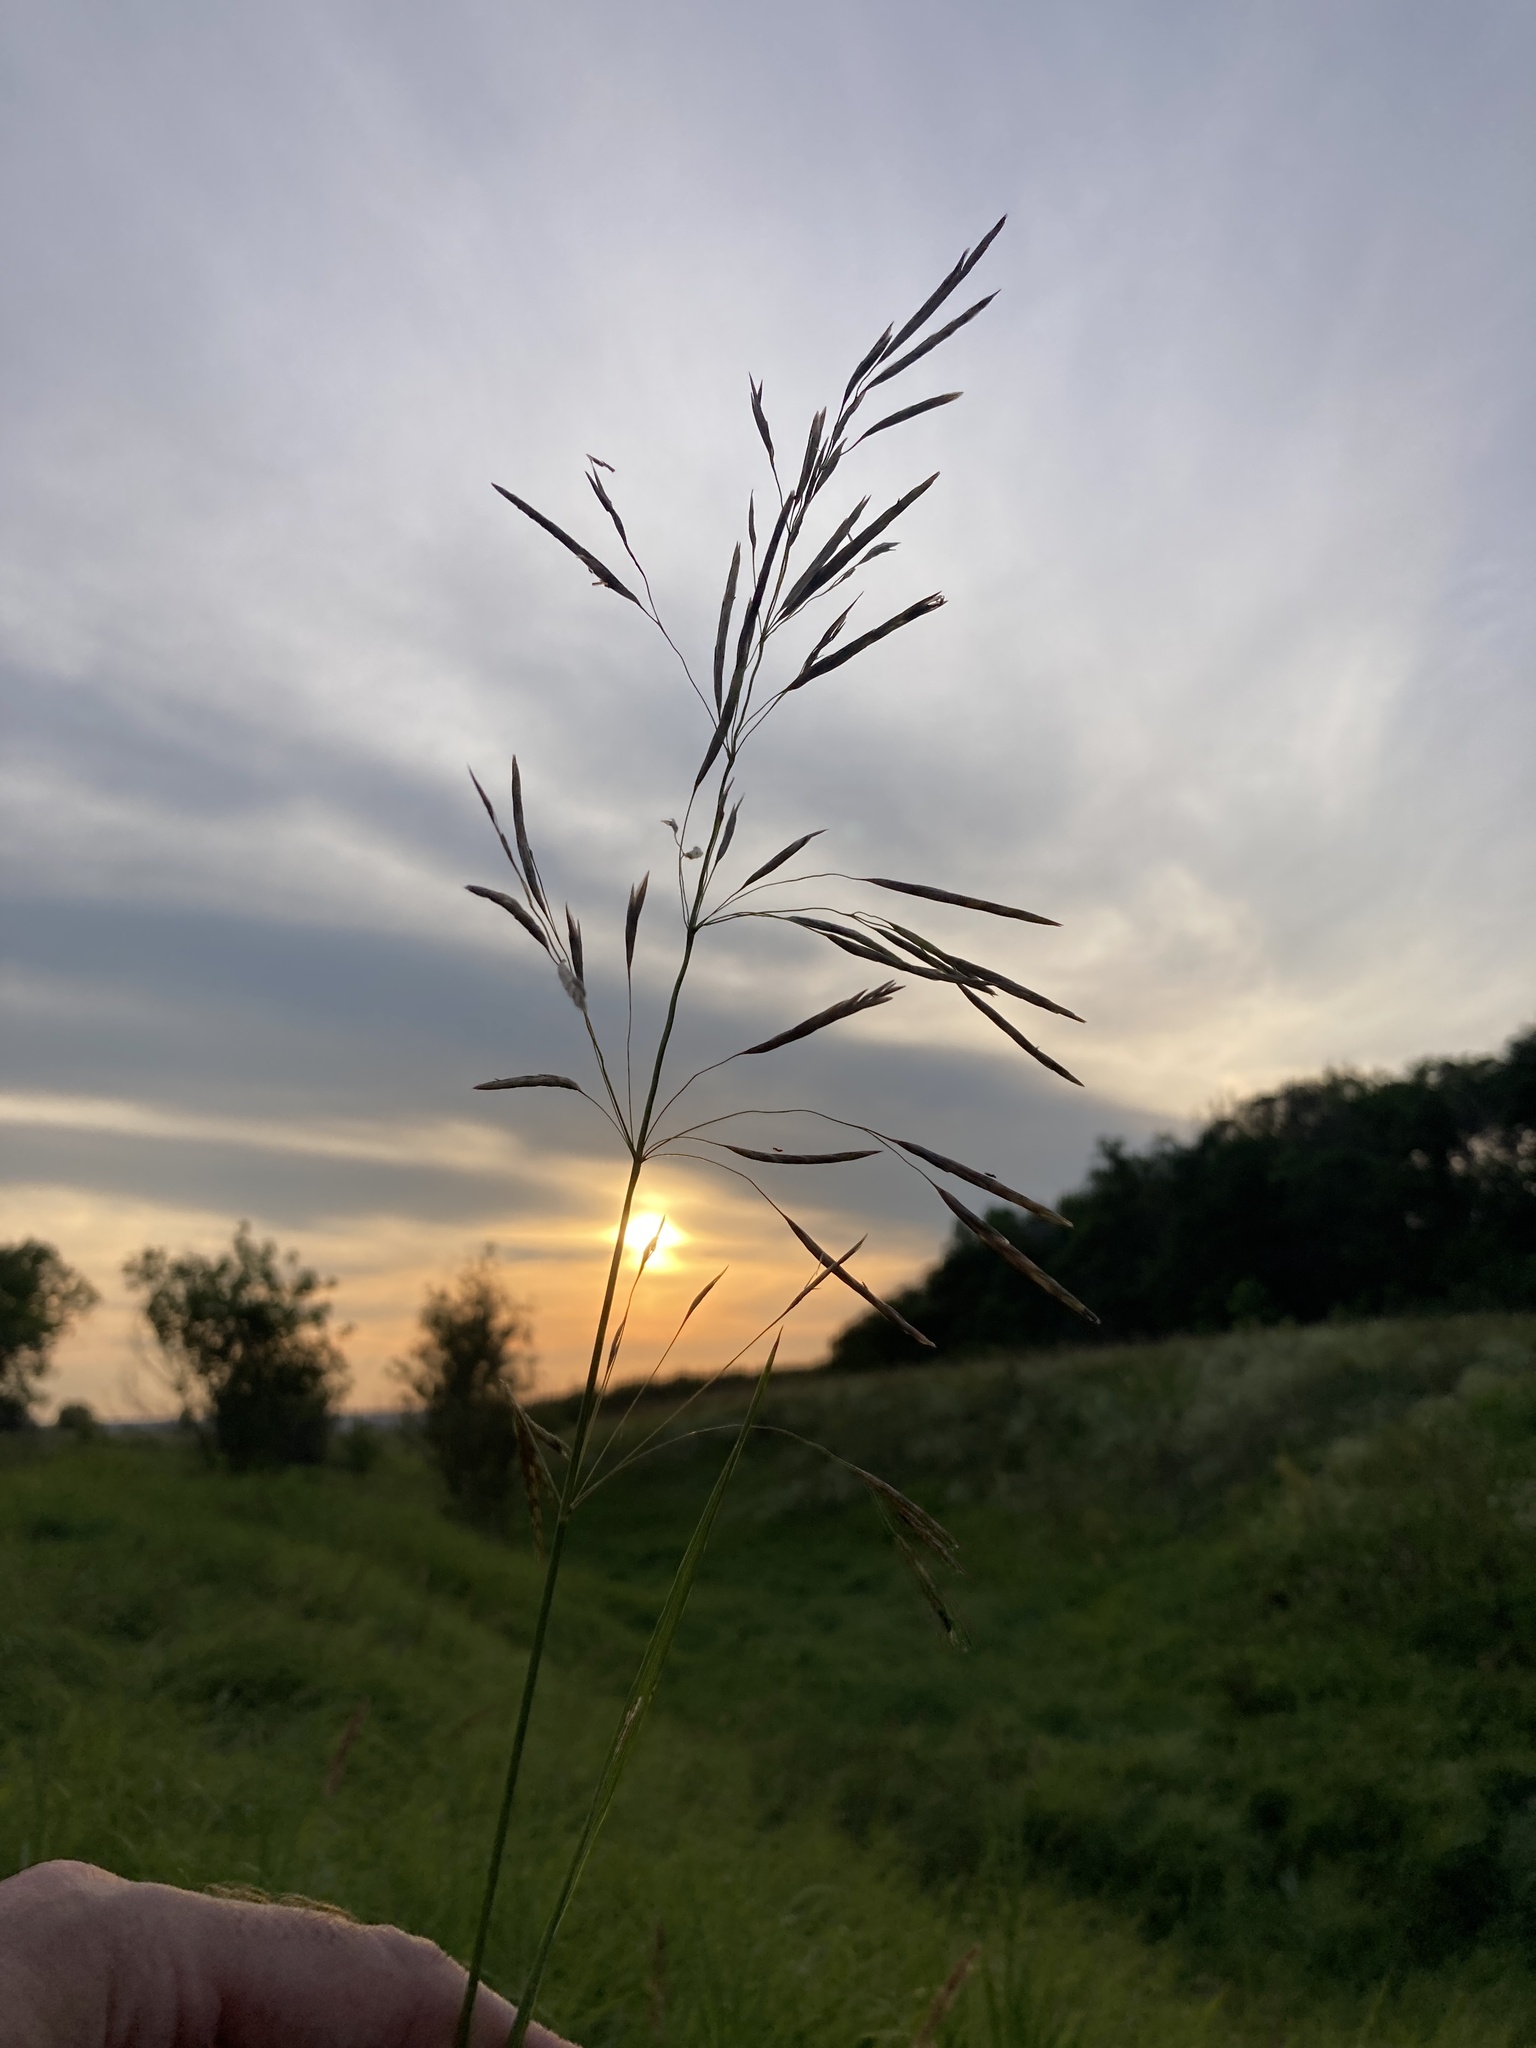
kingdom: Plantae
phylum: Tracheophyta
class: Liliopsida
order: Poales
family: Poaceae
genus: Bromus
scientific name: Bromus inermis
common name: Smooth brome
